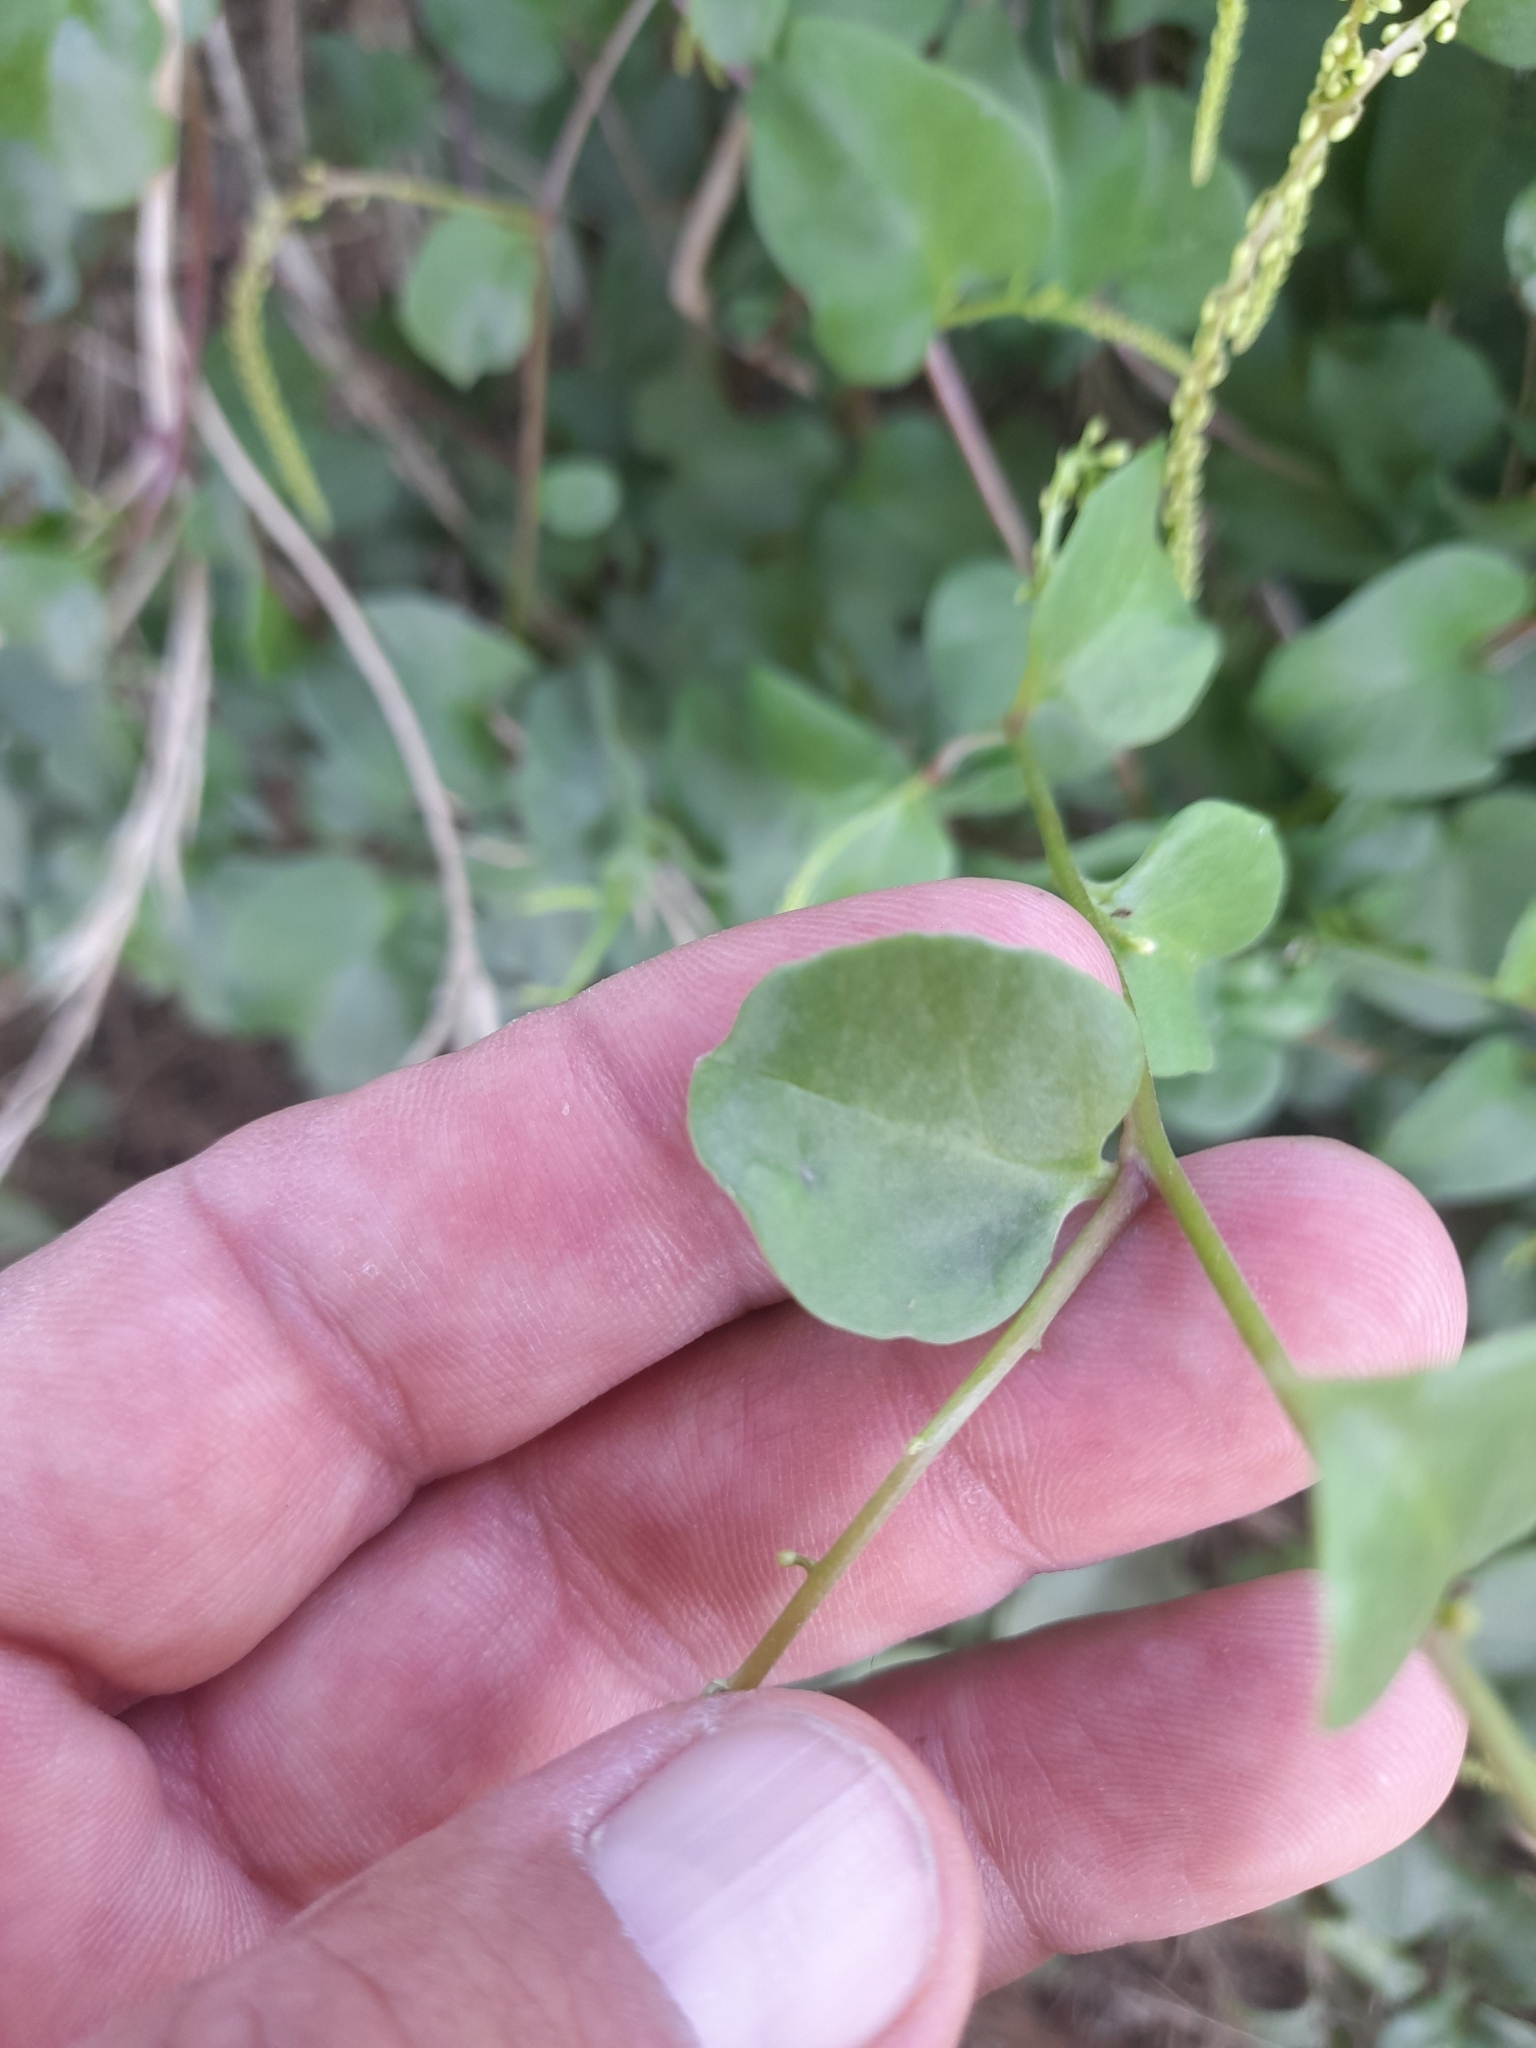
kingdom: Plantae
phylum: Tracheophyta
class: Magnoliopsida
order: Caryophyllales
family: Basellaceae
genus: Anredera
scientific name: Anredera cordifolia
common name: Heartleaf madeiravine
